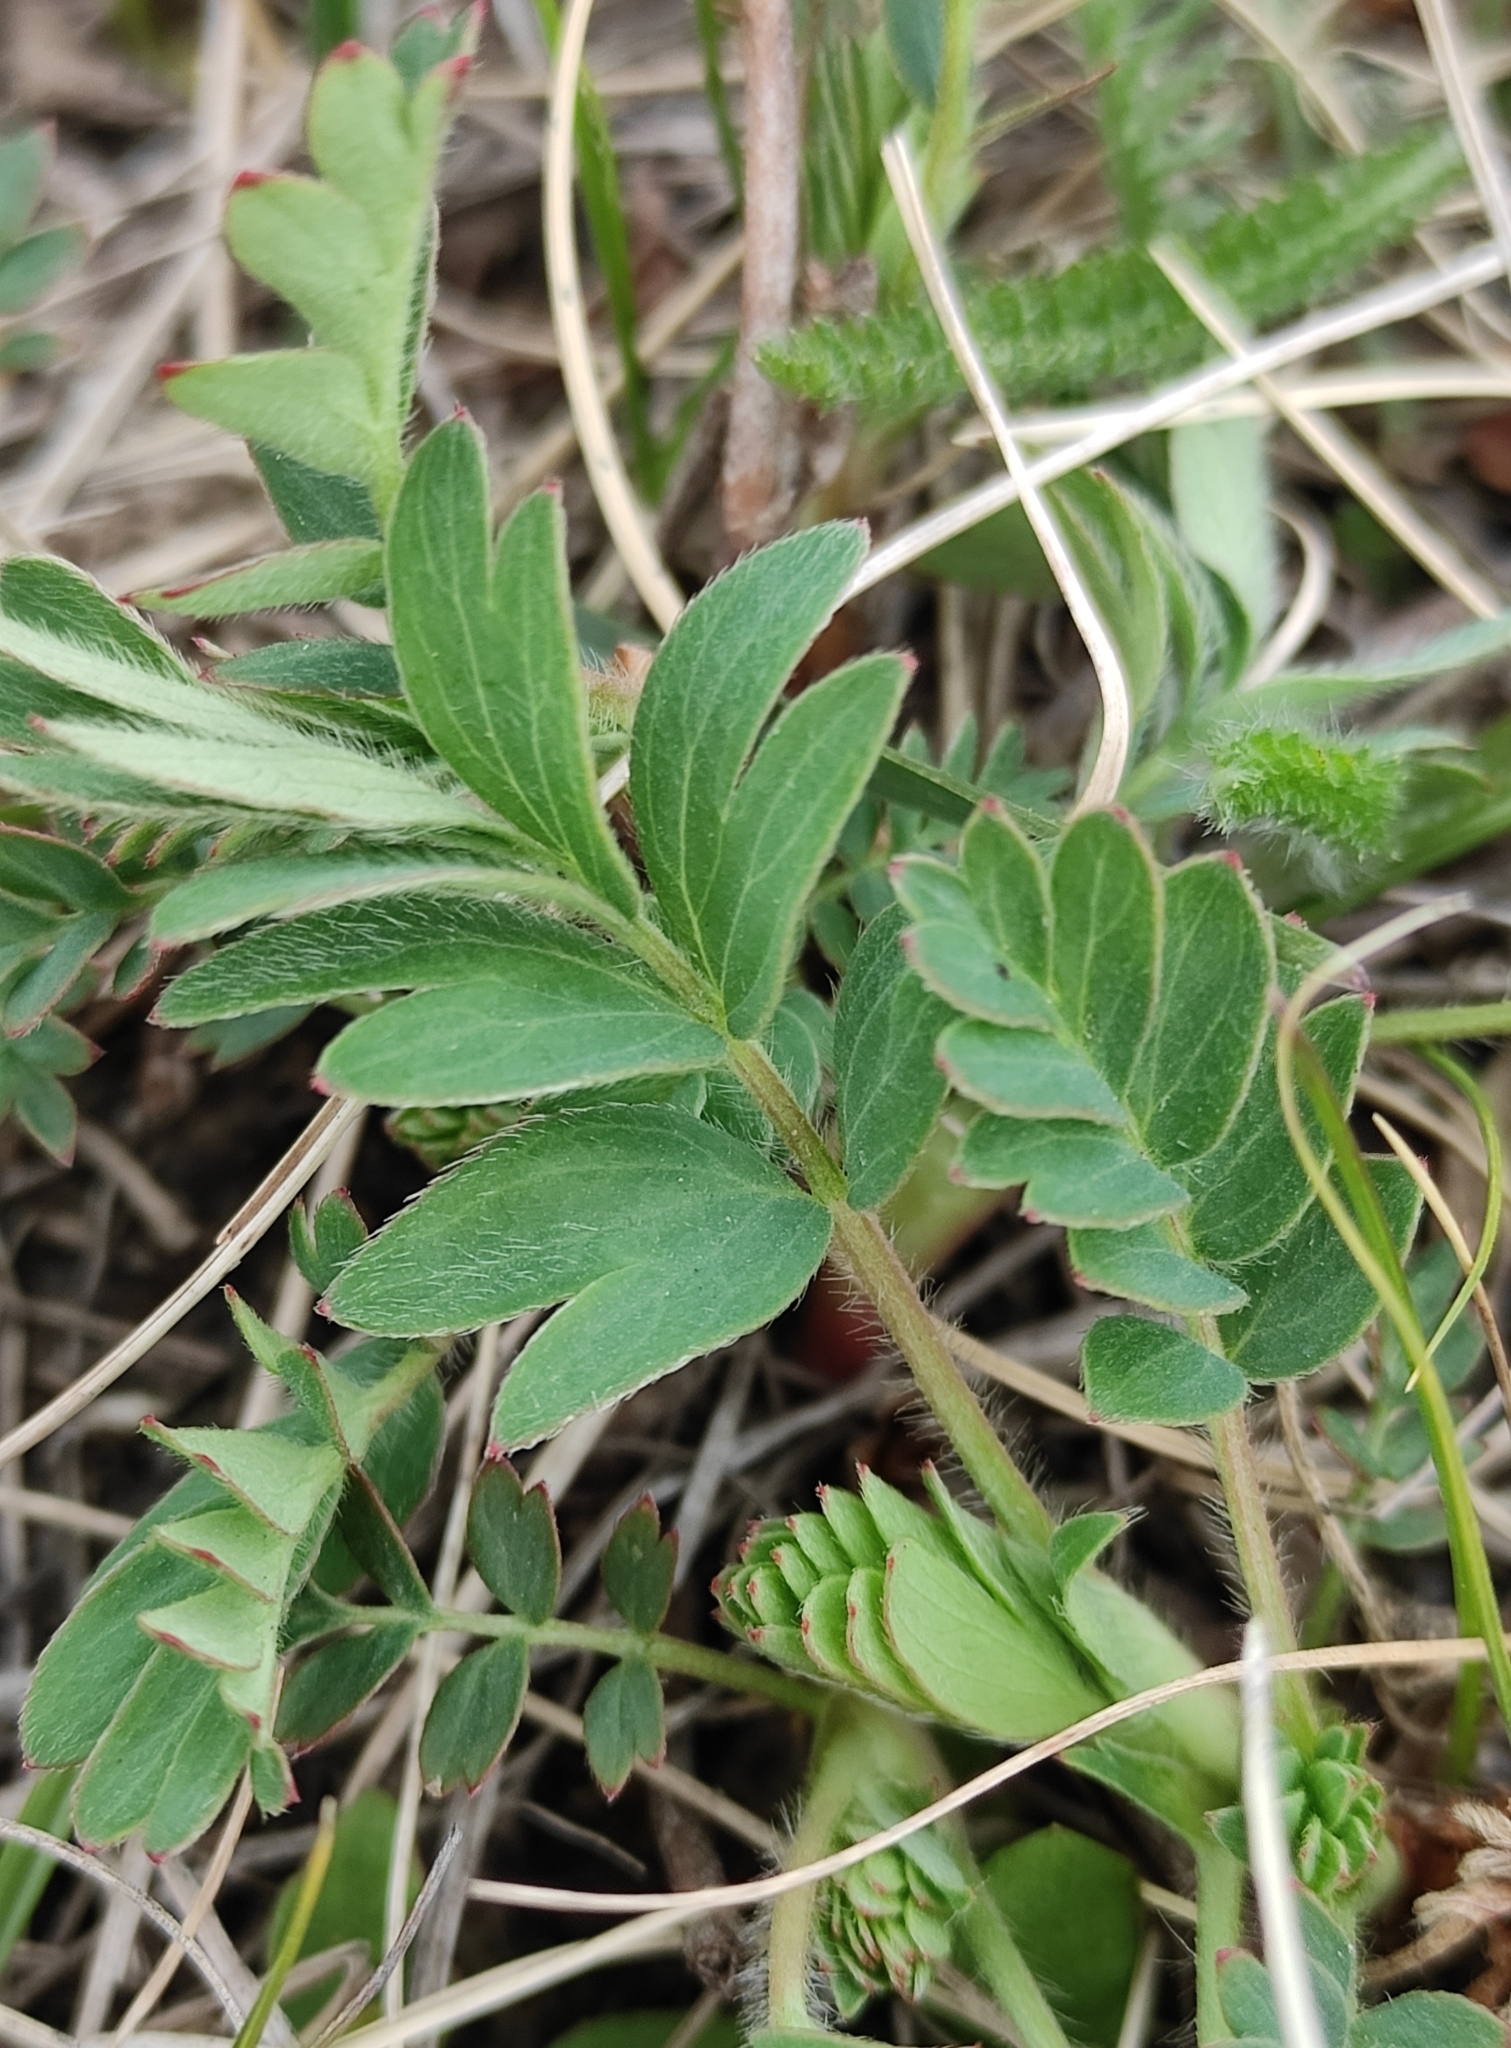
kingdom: Plantae
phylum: Tracheophyta
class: Magnoliopsida
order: Rosales
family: Rosaceae
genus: Sibbaldianthe
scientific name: Sibbaldianthe bifurca
